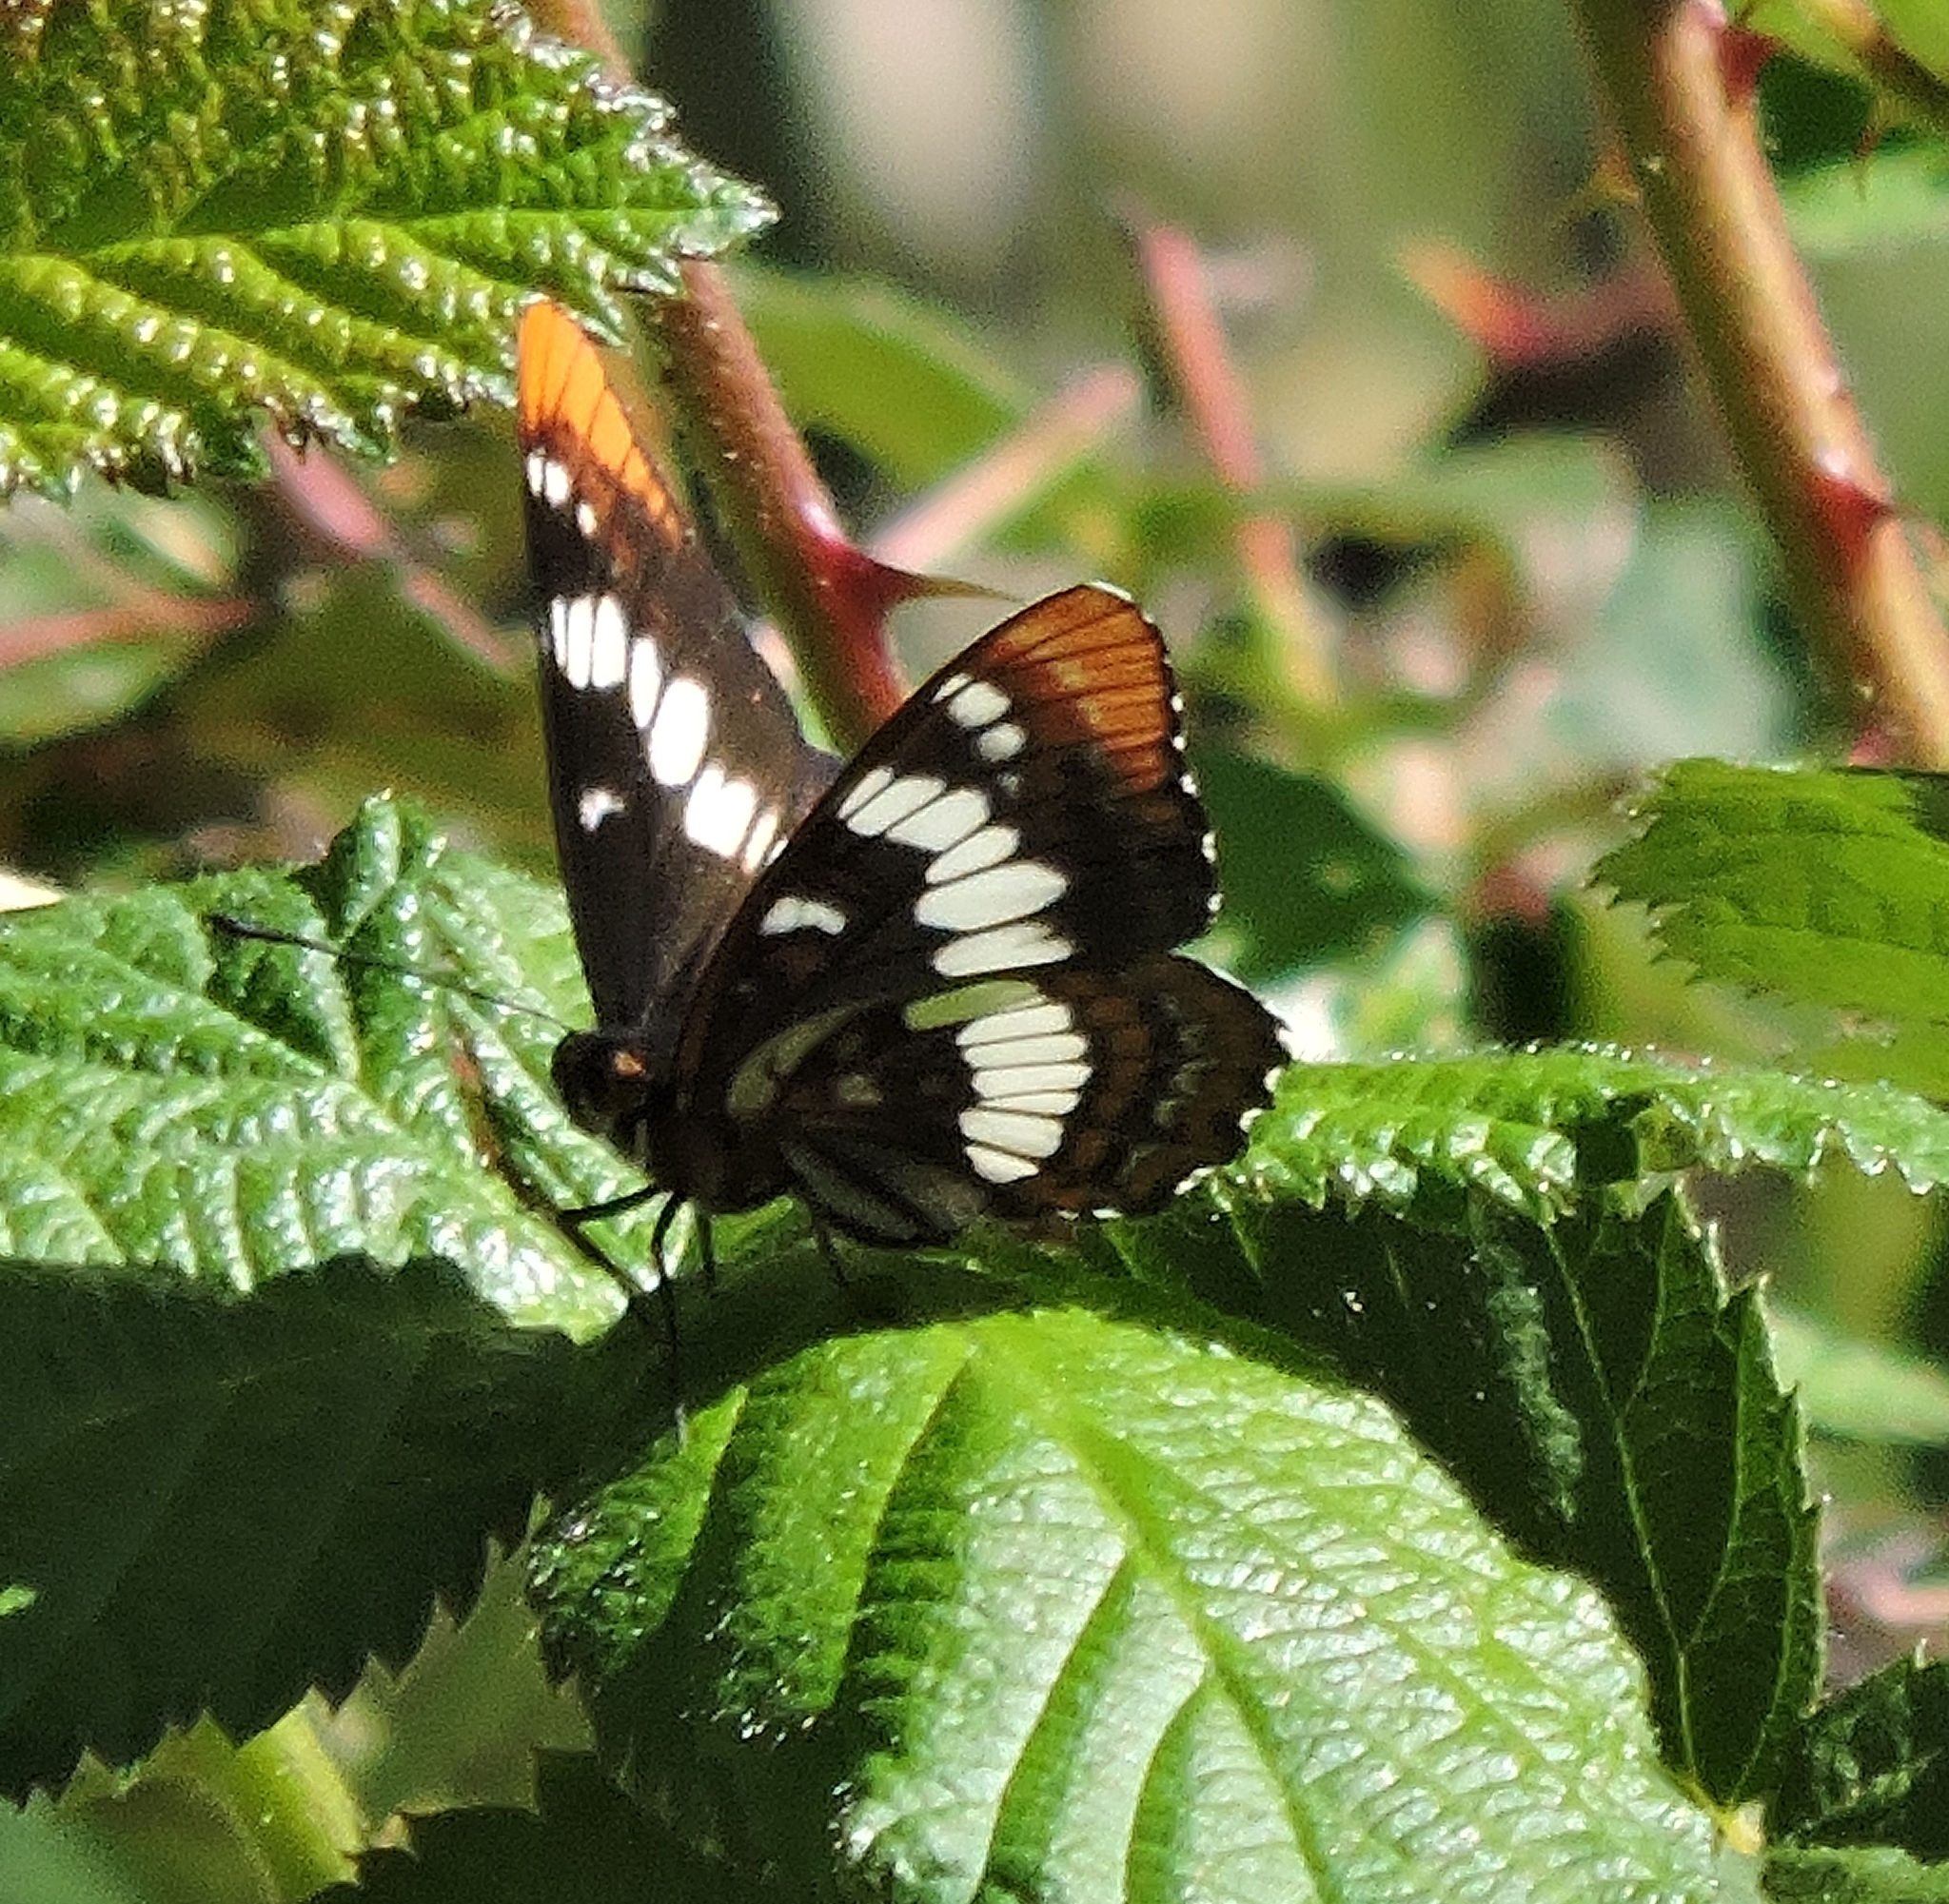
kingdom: Animalia
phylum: Arthropoda
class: Insecta
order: Lepidoptera
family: Nymphalidae
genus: Limenitis
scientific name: Limenitis lorquini
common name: Lorquin's admiral
